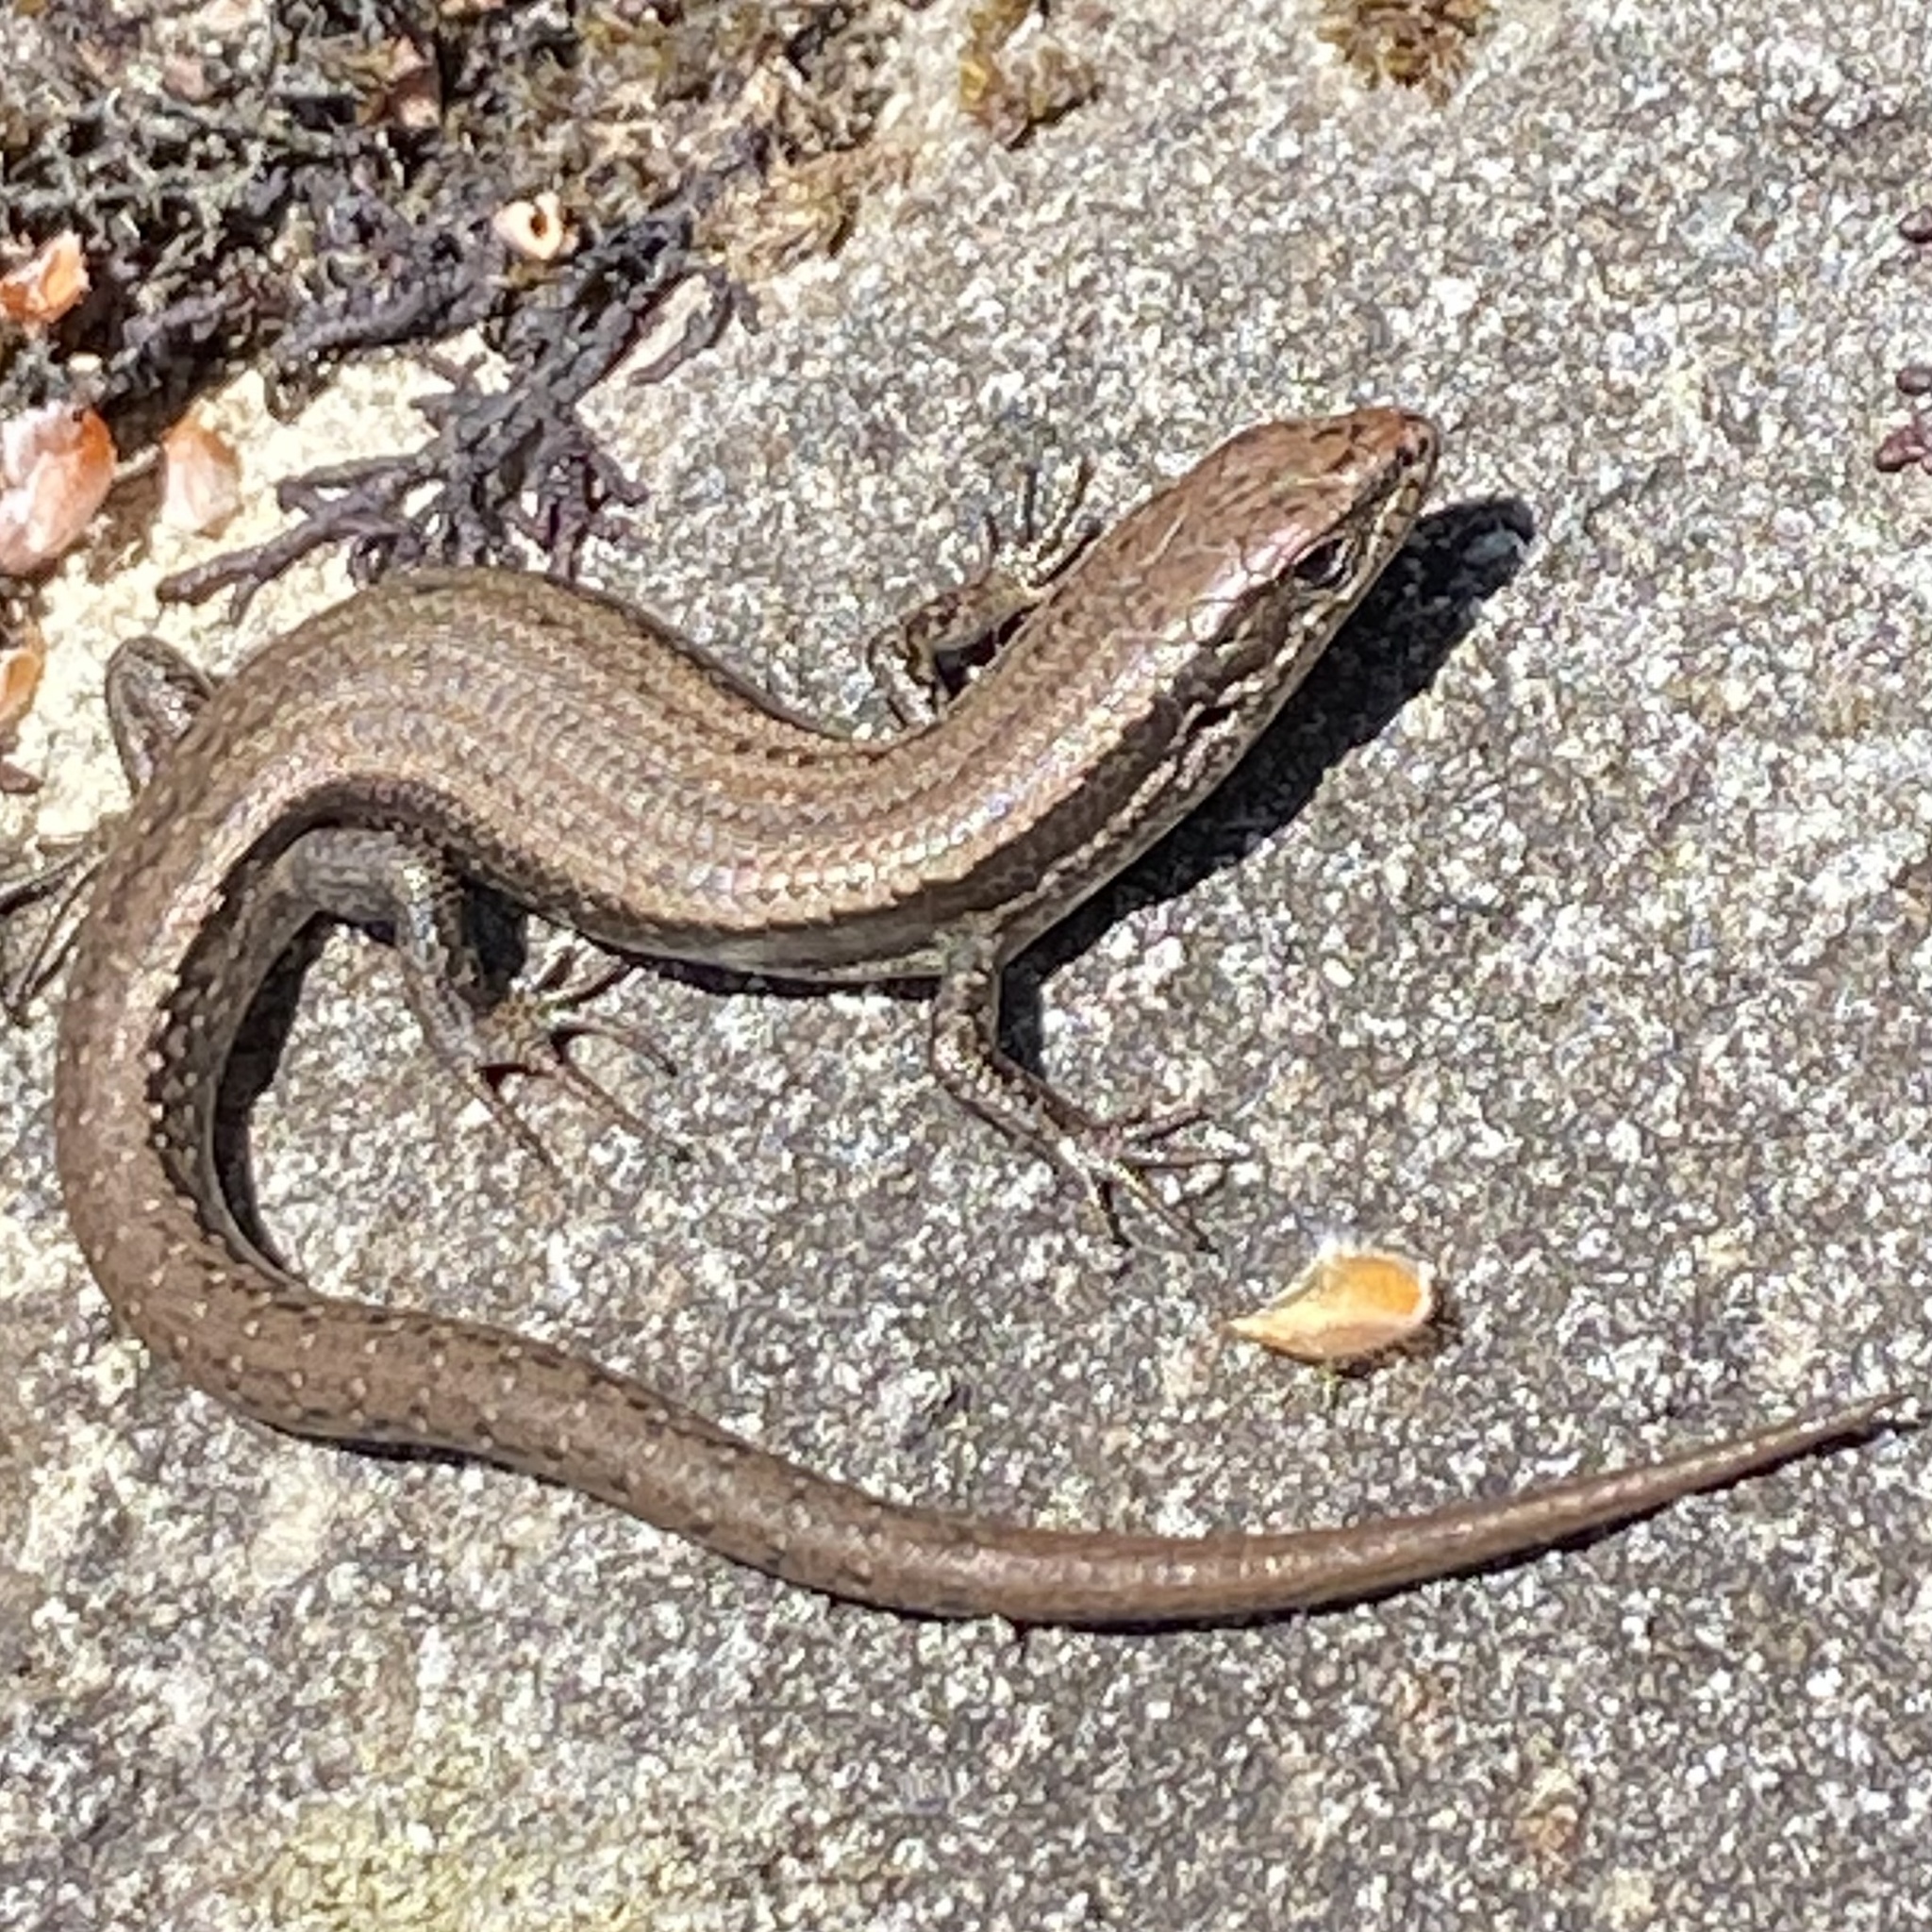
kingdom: Animalia
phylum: Chordata
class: Squamata
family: Scincidae
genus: Carinascincus
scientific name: Carinascincus metallicus
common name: Metallic cool-skink
